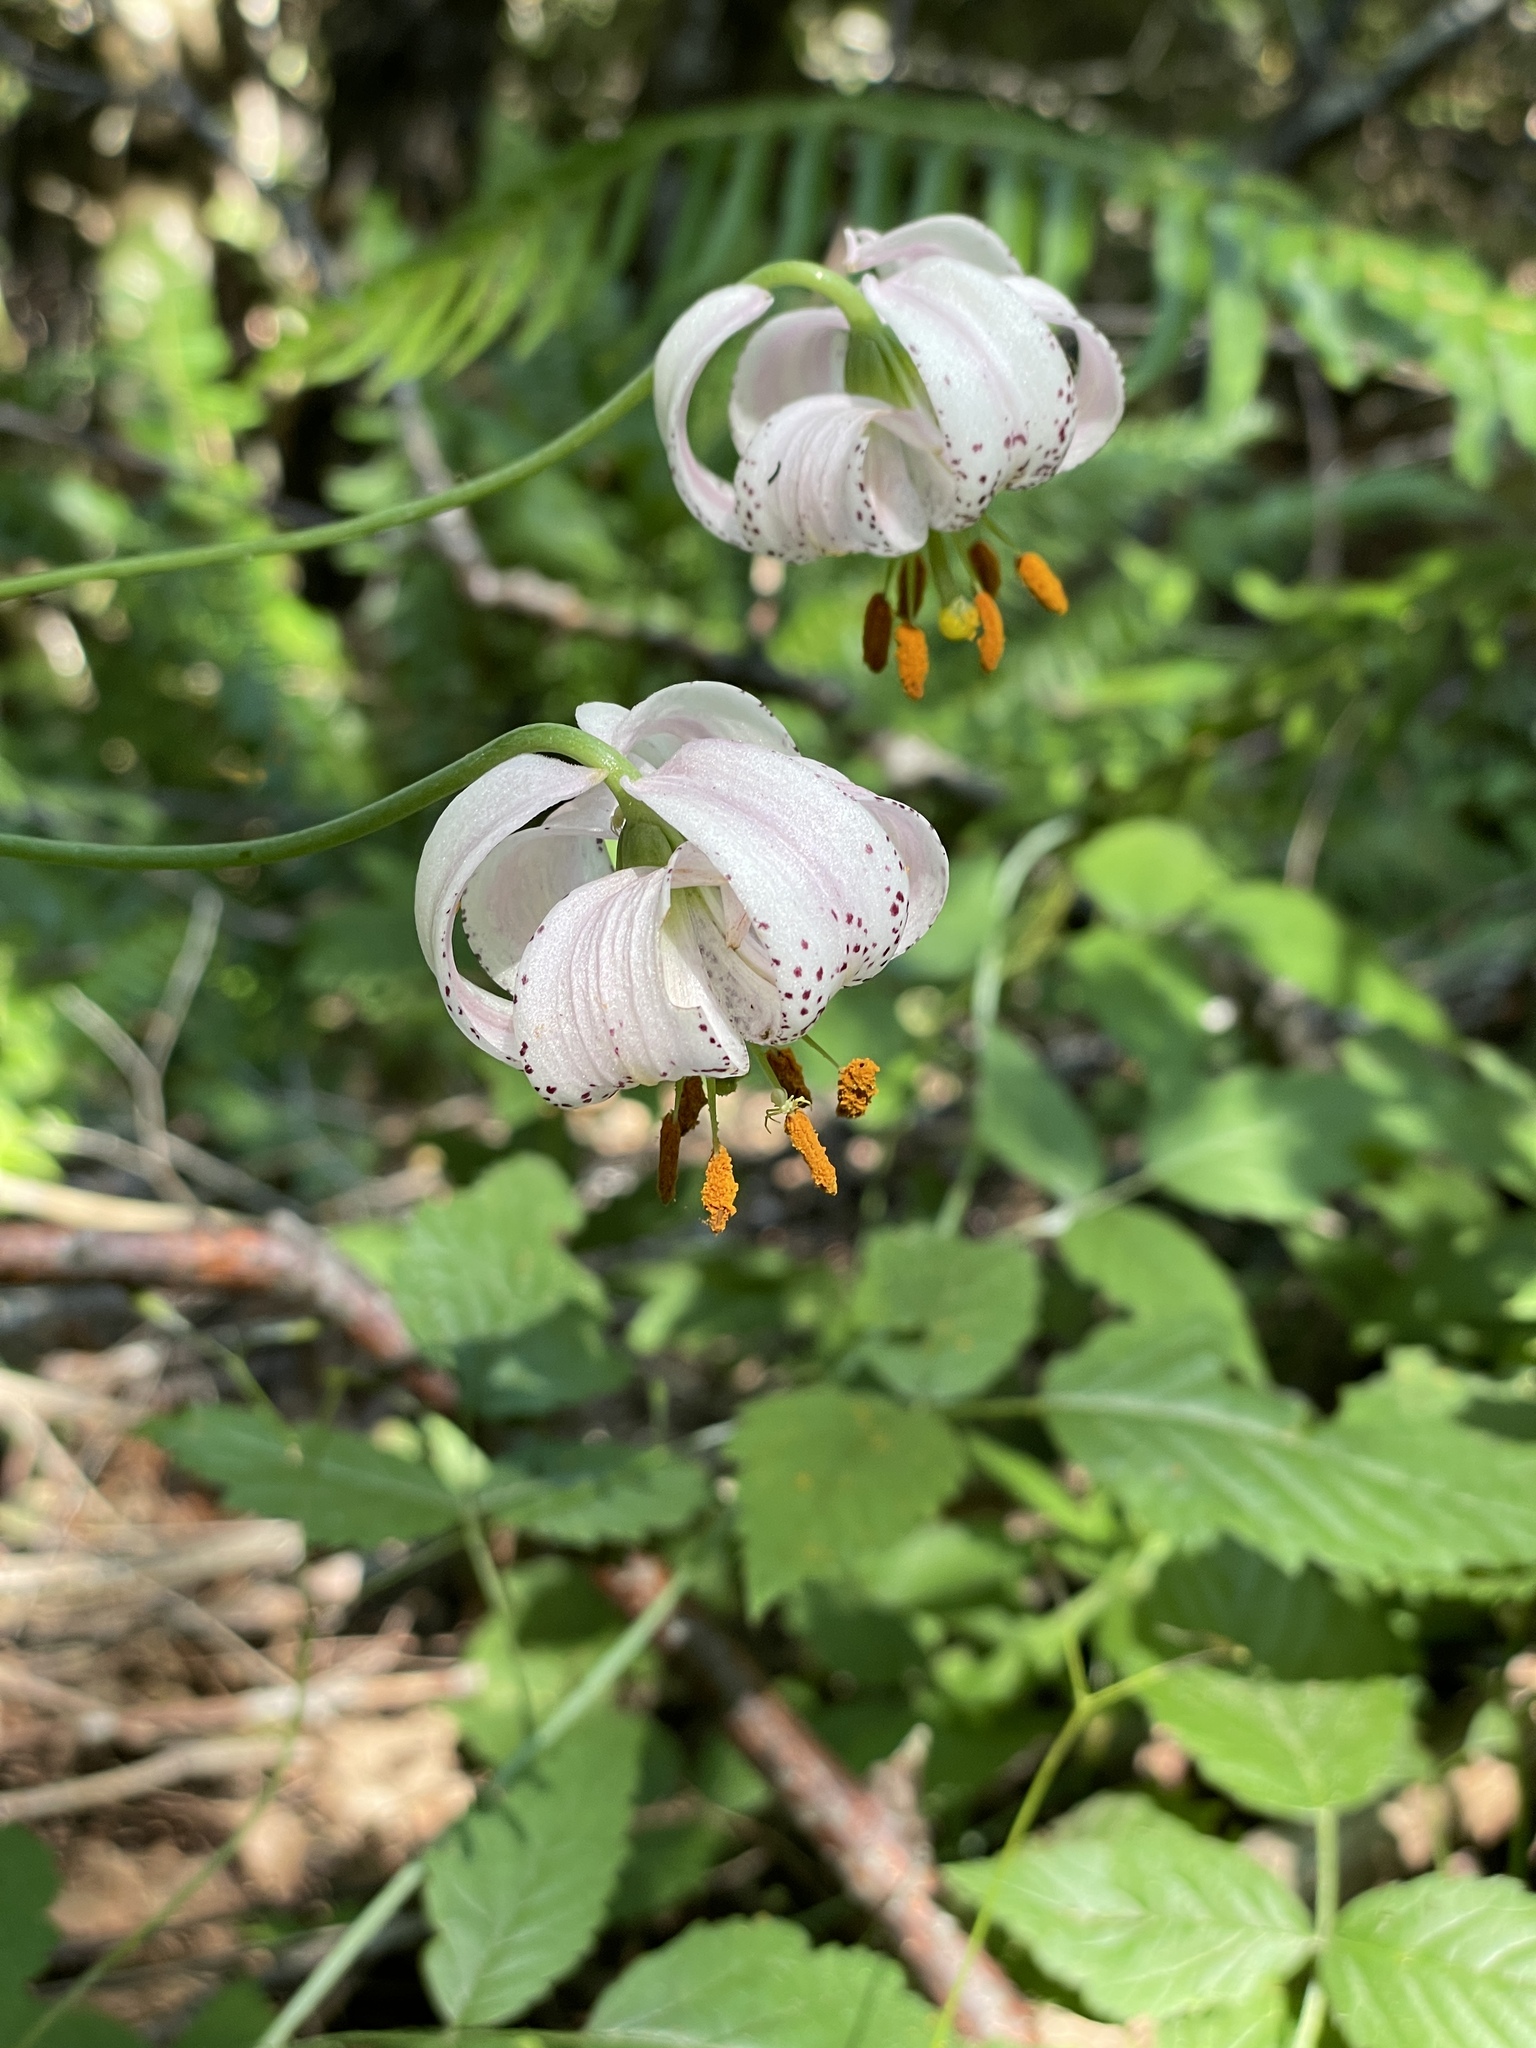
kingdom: Plantae
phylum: Tracheophyta
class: Liliopsida
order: Liliales
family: Liliaceae
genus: Lilium
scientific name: Lilium kelloggii
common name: Kellogg's lily
